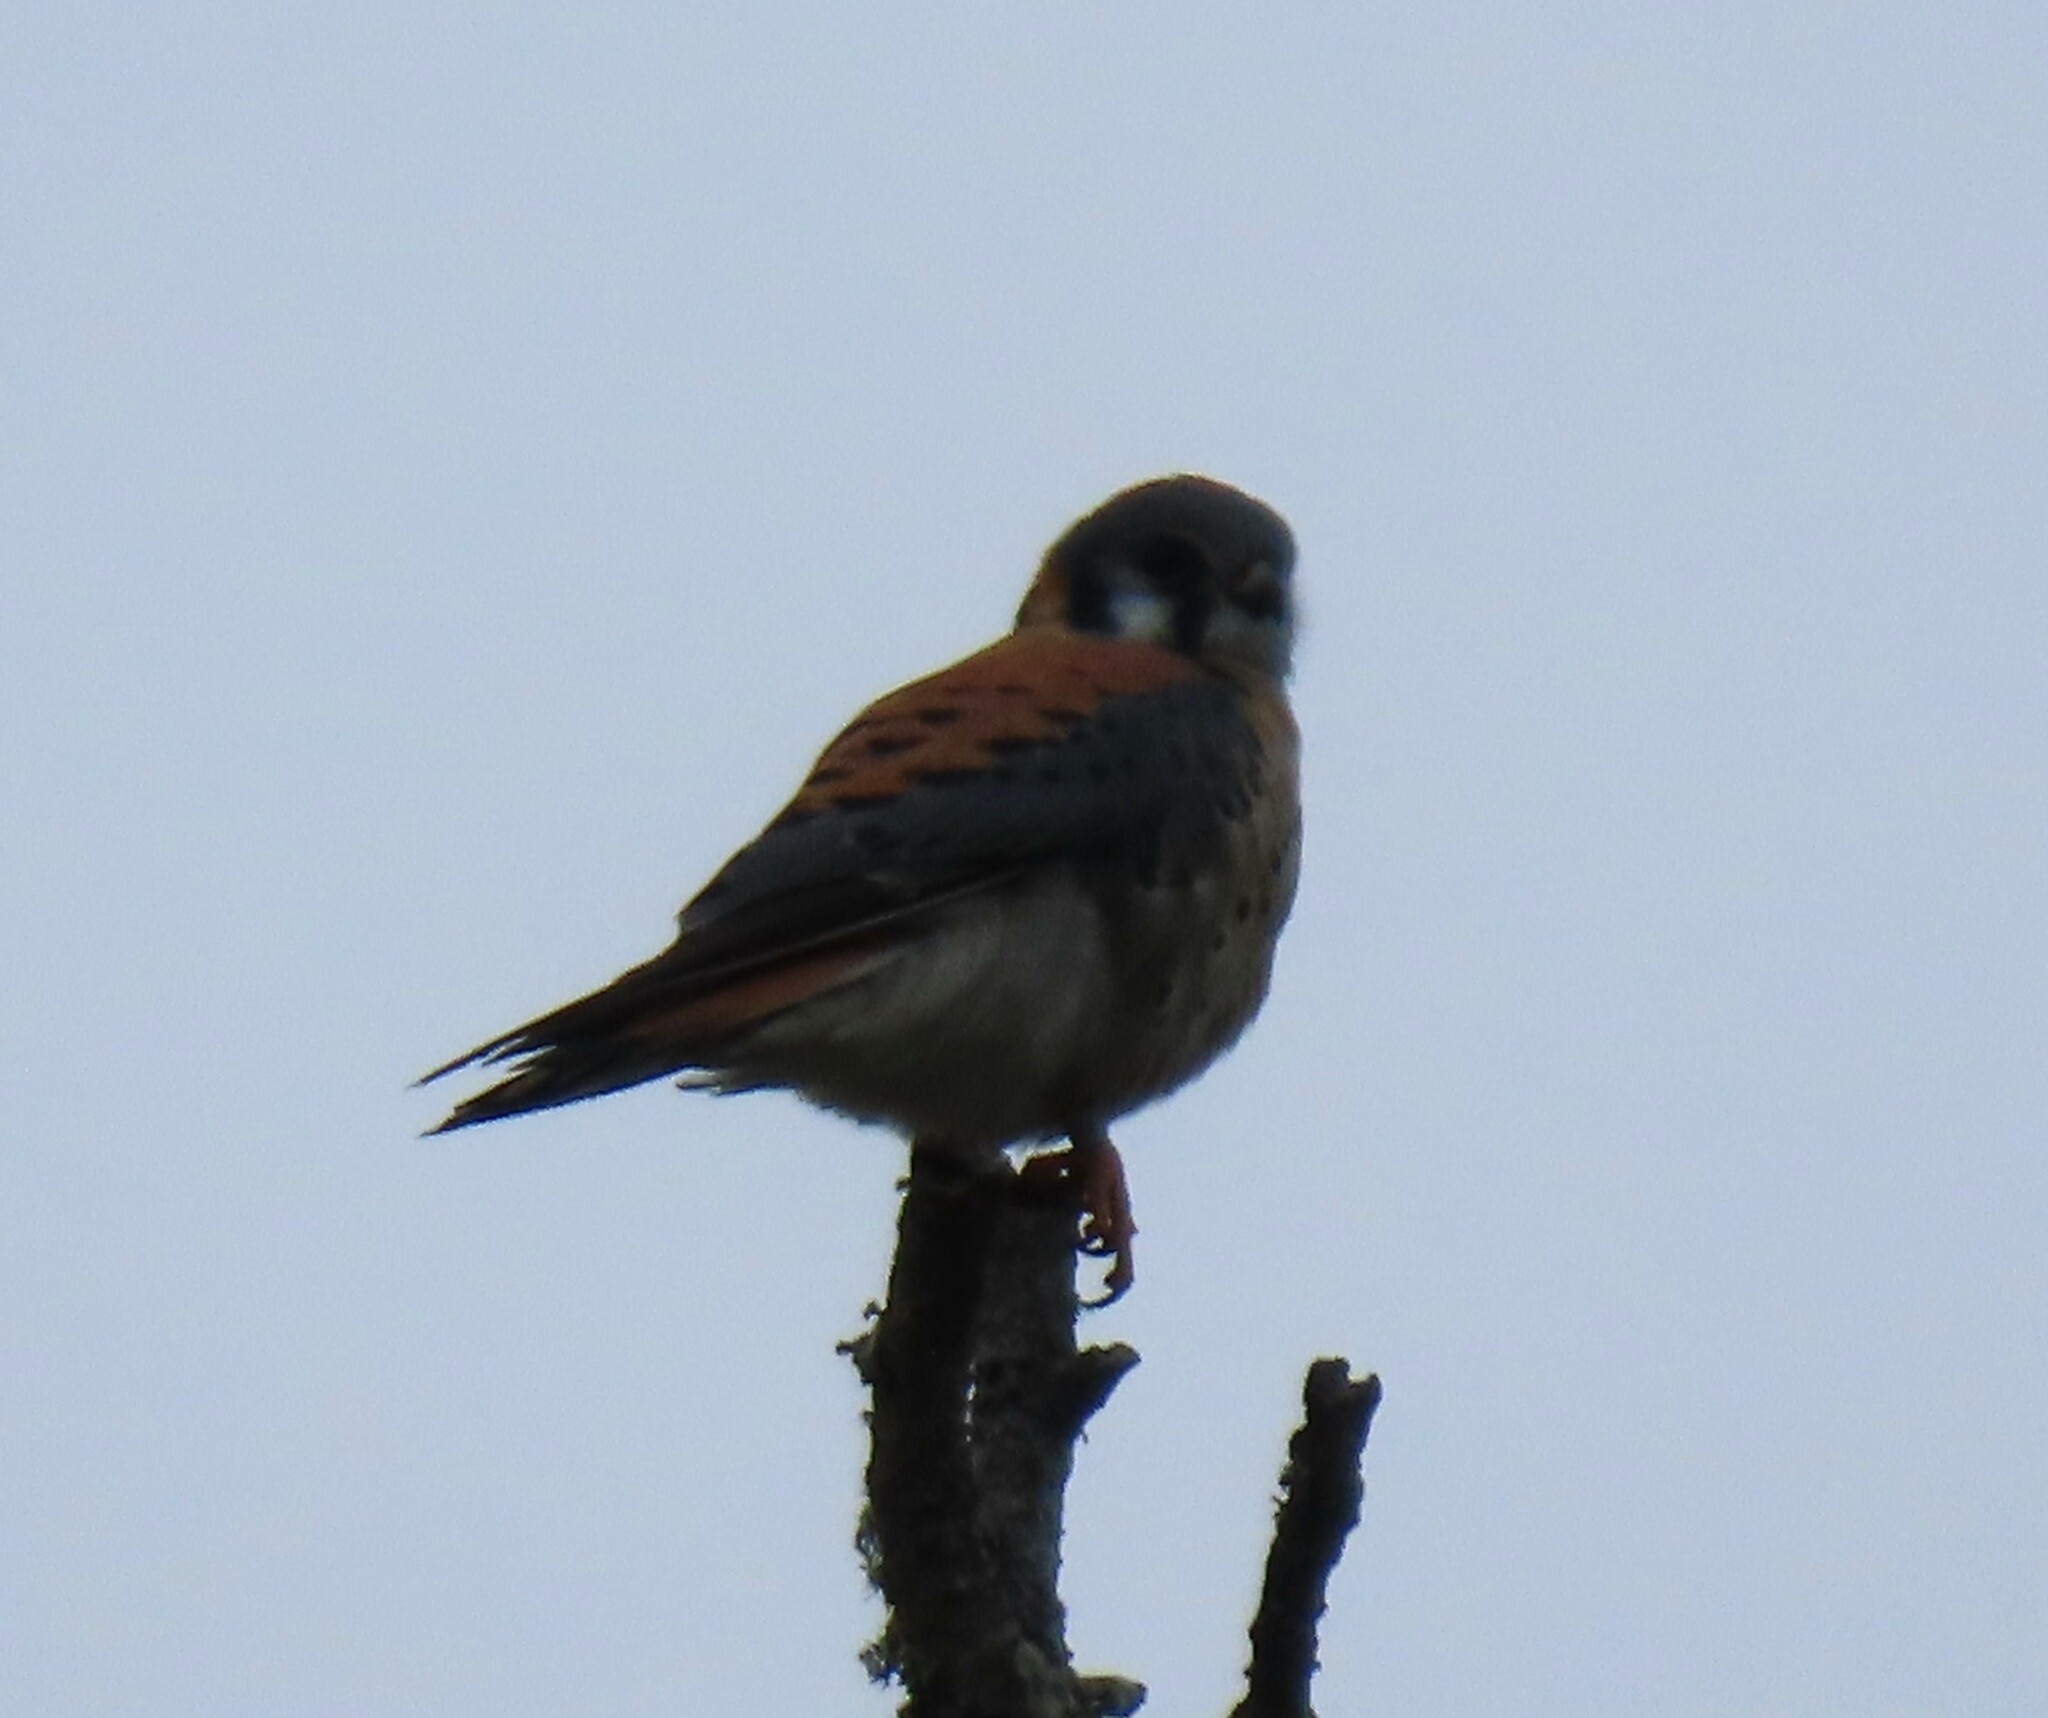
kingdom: Animalia
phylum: Chordata
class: Aves
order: Falconiformes
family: Falconidae
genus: Falco
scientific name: Falco sparverius
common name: American kestrel
